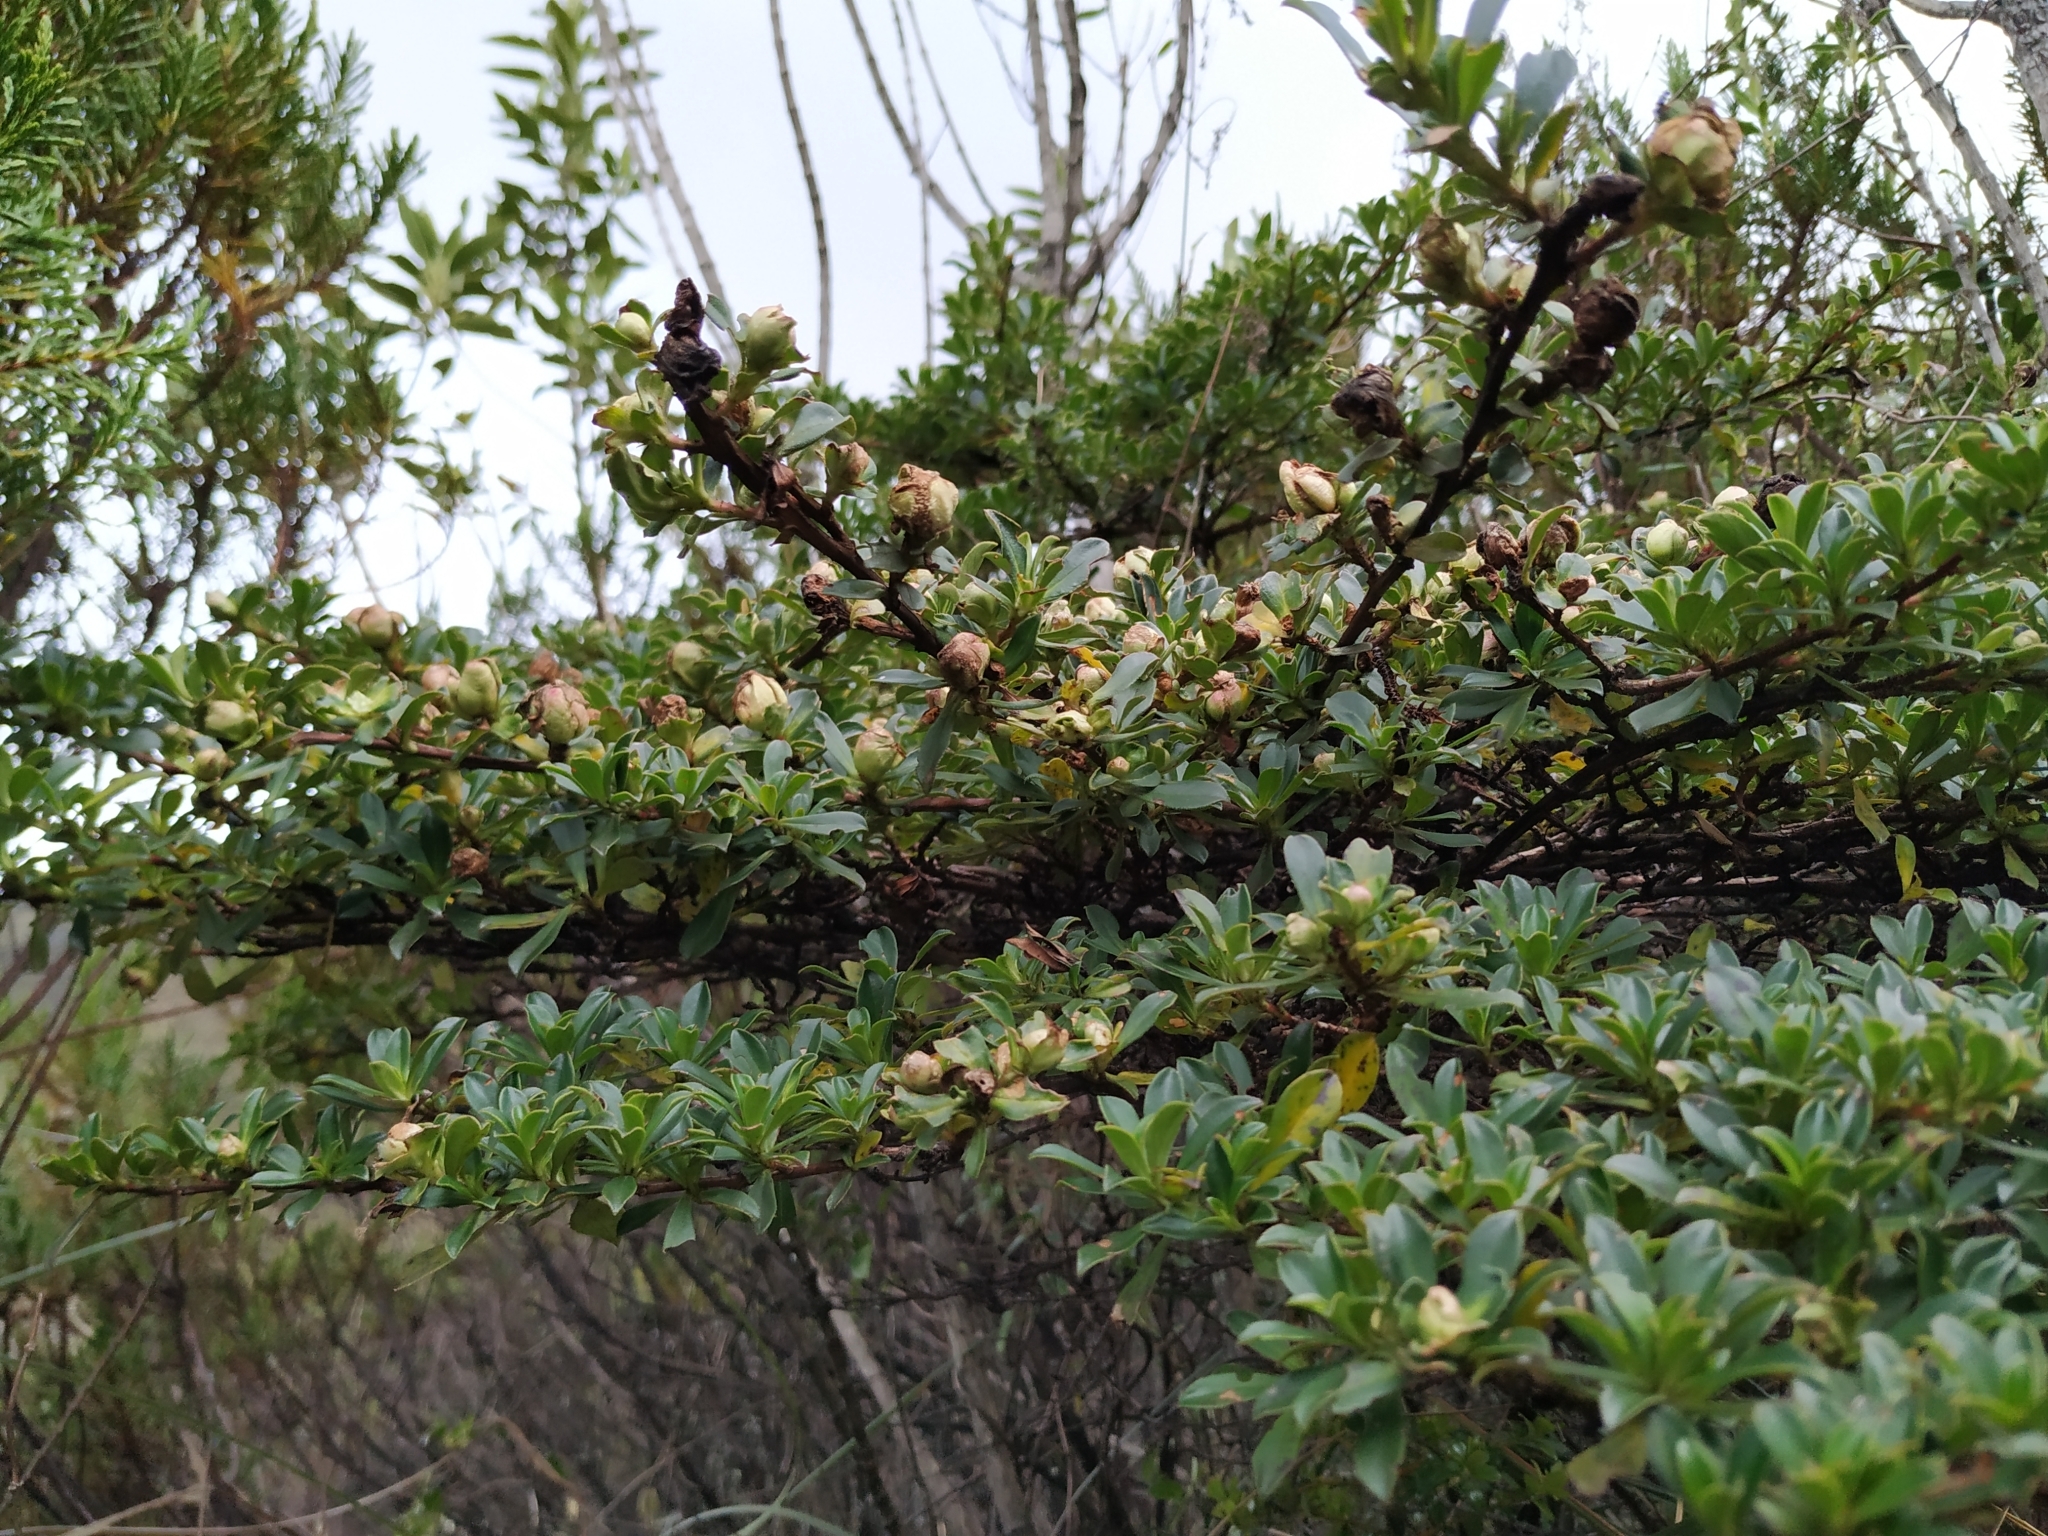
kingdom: Plantae
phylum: Tracheophyta
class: Magnoliopsida
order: Escalloniales
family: Escalloniaceae
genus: Escallonia
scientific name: Escallonia myrtilloides
